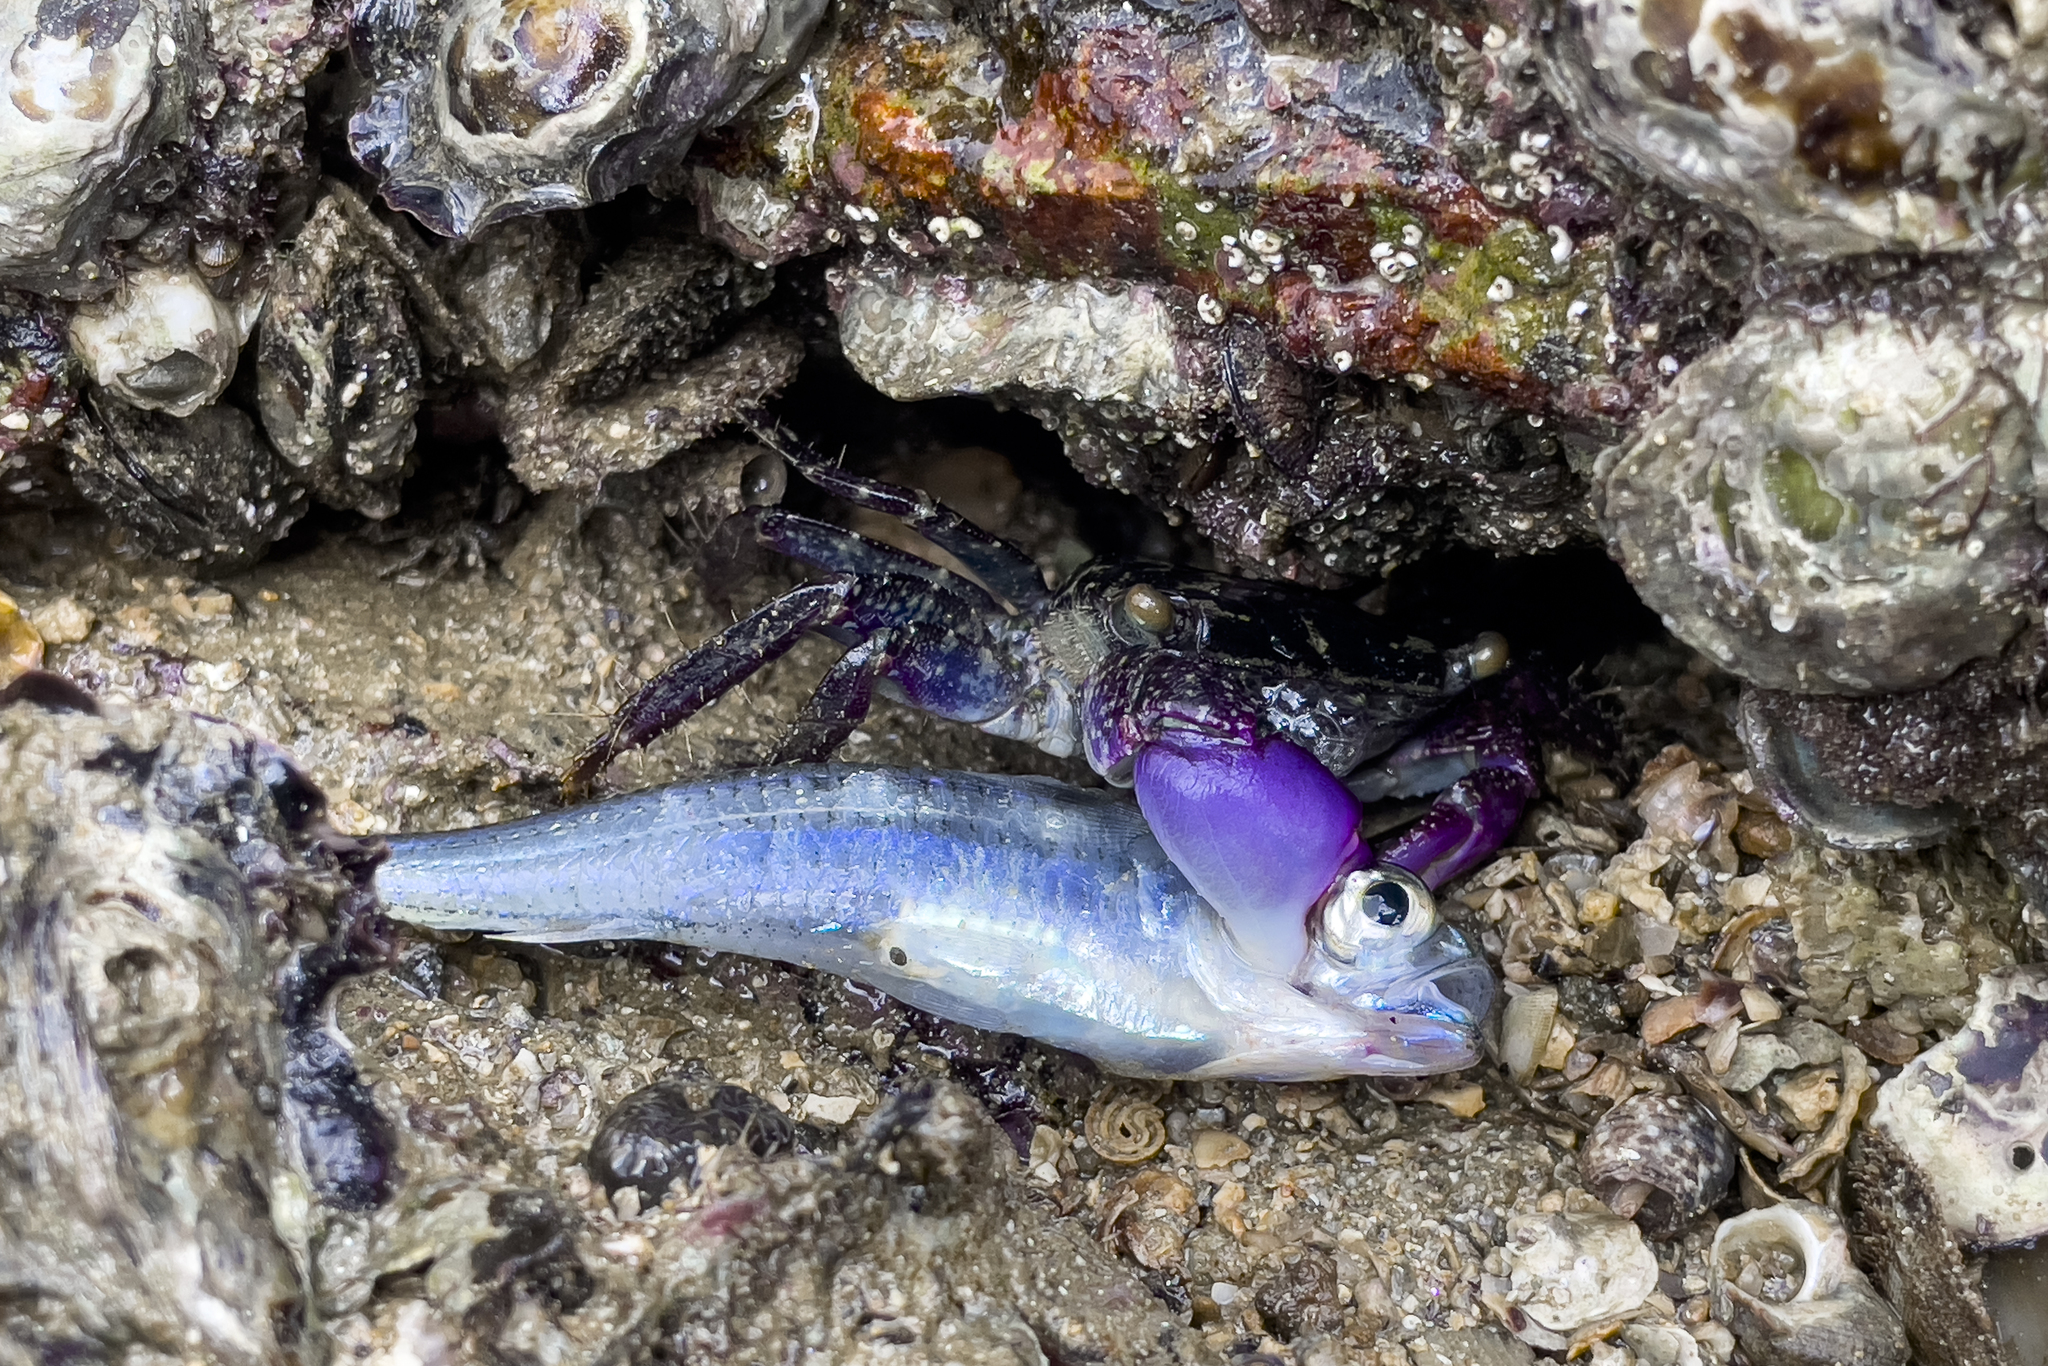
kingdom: Animalia
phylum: Arthropoda
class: Malacostraca
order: Decapoda
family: Grapsidae
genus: Metopograpsus
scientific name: Metopograpsus frontalis
